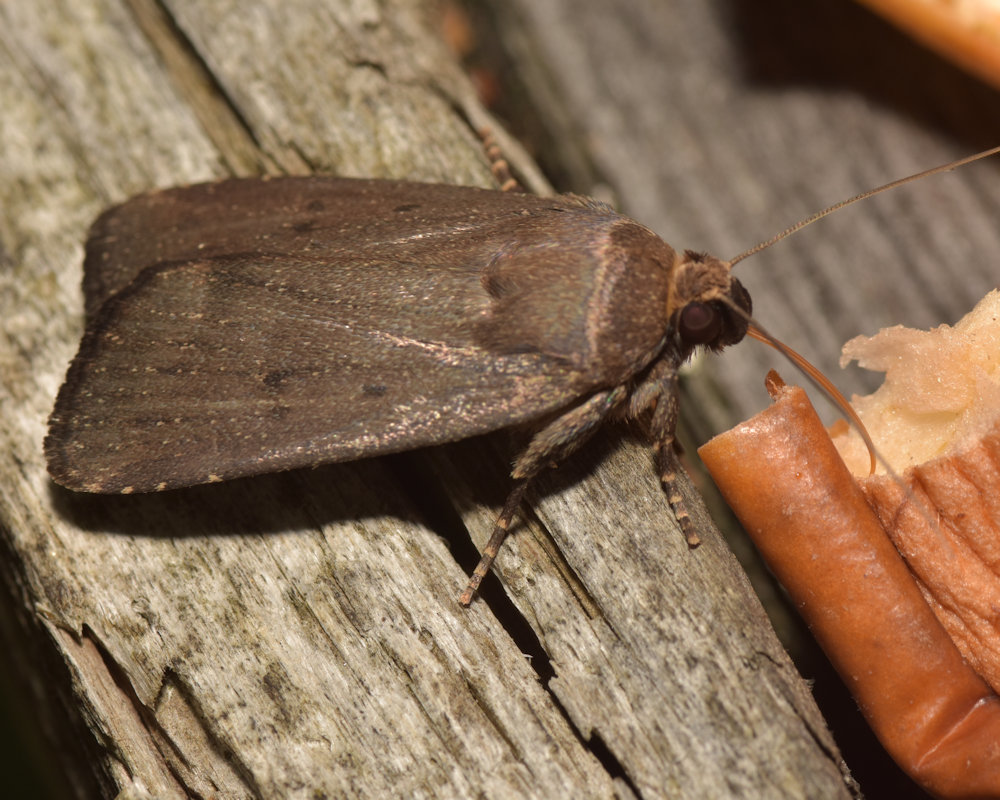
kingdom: Animalia
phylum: Arthropoda
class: Insecta
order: Lepidoptera
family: Noctuidae
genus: Amphipyra
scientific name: Amphipyra tragopoginis
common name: Mouse moth
